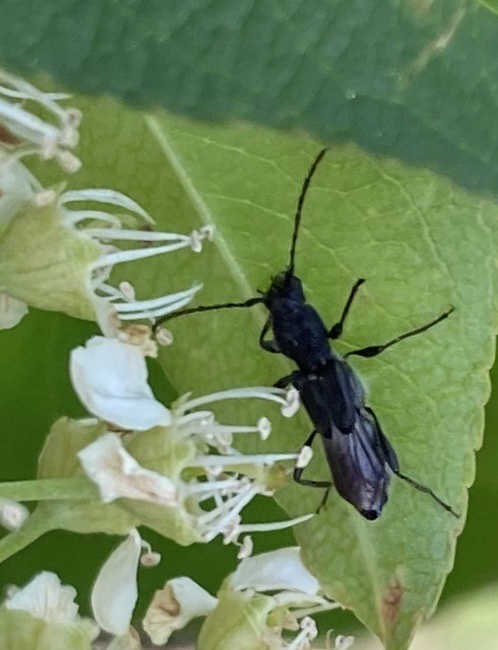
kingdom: Animalia
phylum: Arthropoda
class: Insecta
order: Coleoptera
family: Cerambycidae
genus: Molorchus
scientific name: Molorchus bimaculatus
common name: Bimaculate longhorn beetle
